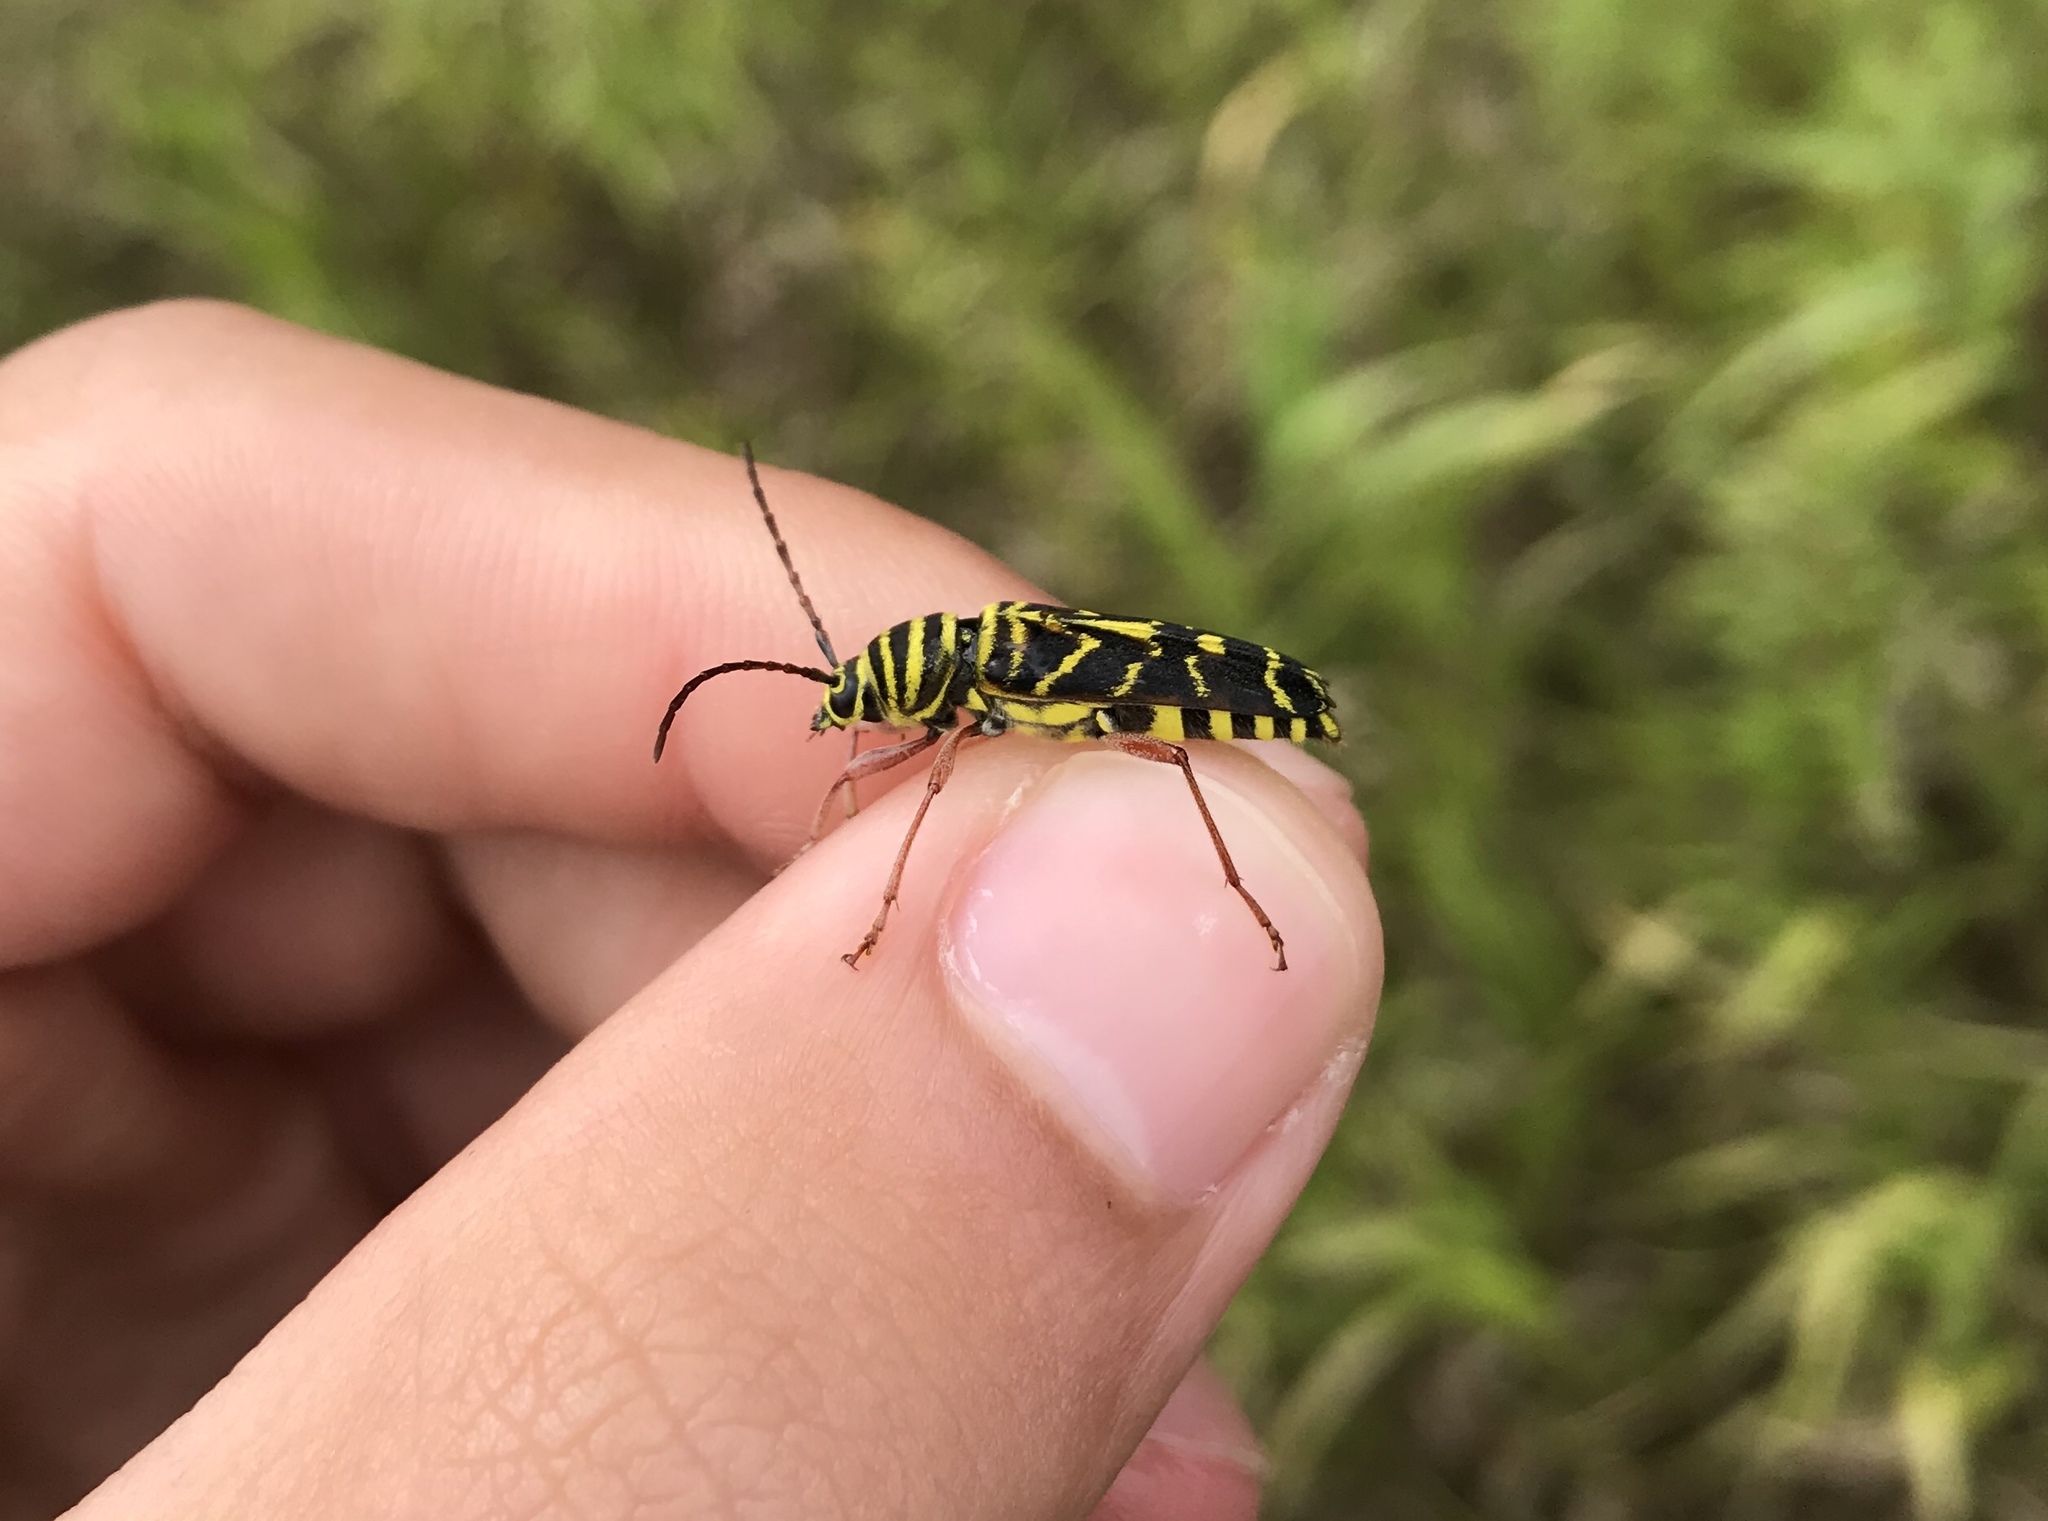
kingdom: Animalia
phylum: Arthropoda
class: Insecta
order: Coleoptera
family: Cerambycidae
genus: Megacyllene
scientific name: Megacyllene robiniae
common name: Locust borer
